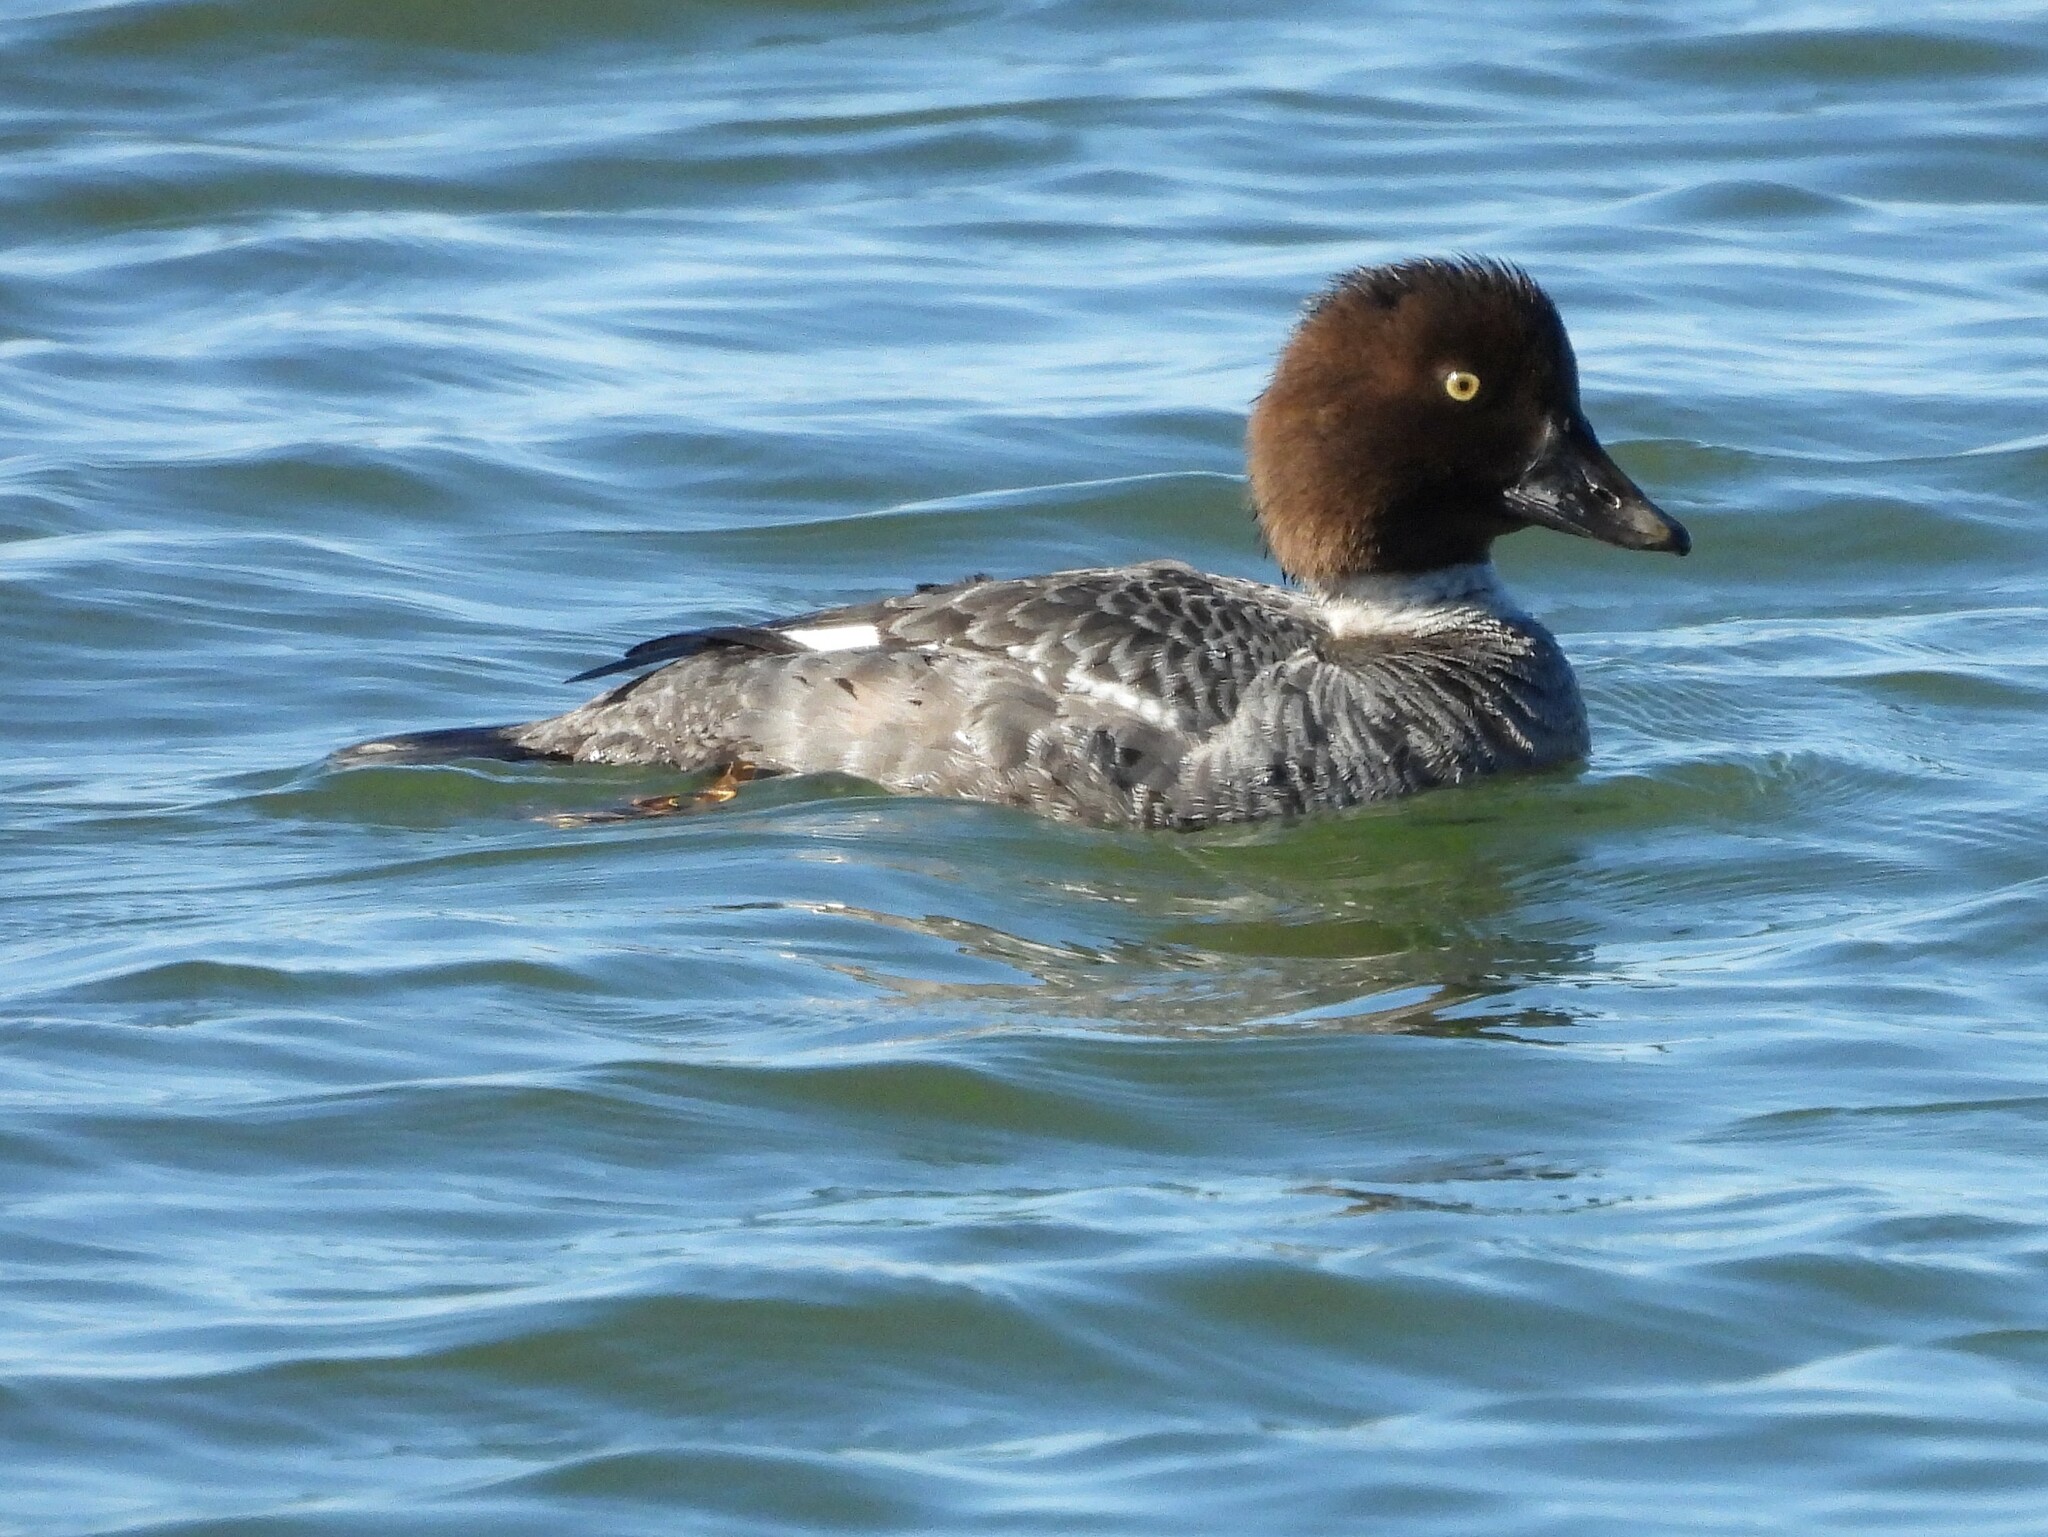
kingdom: Animalia
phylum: Chordata
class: Aves
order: Anseriformes
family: Anatidae
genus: Bucephala
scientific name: Bucephala clangula
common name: Common goldeneye
